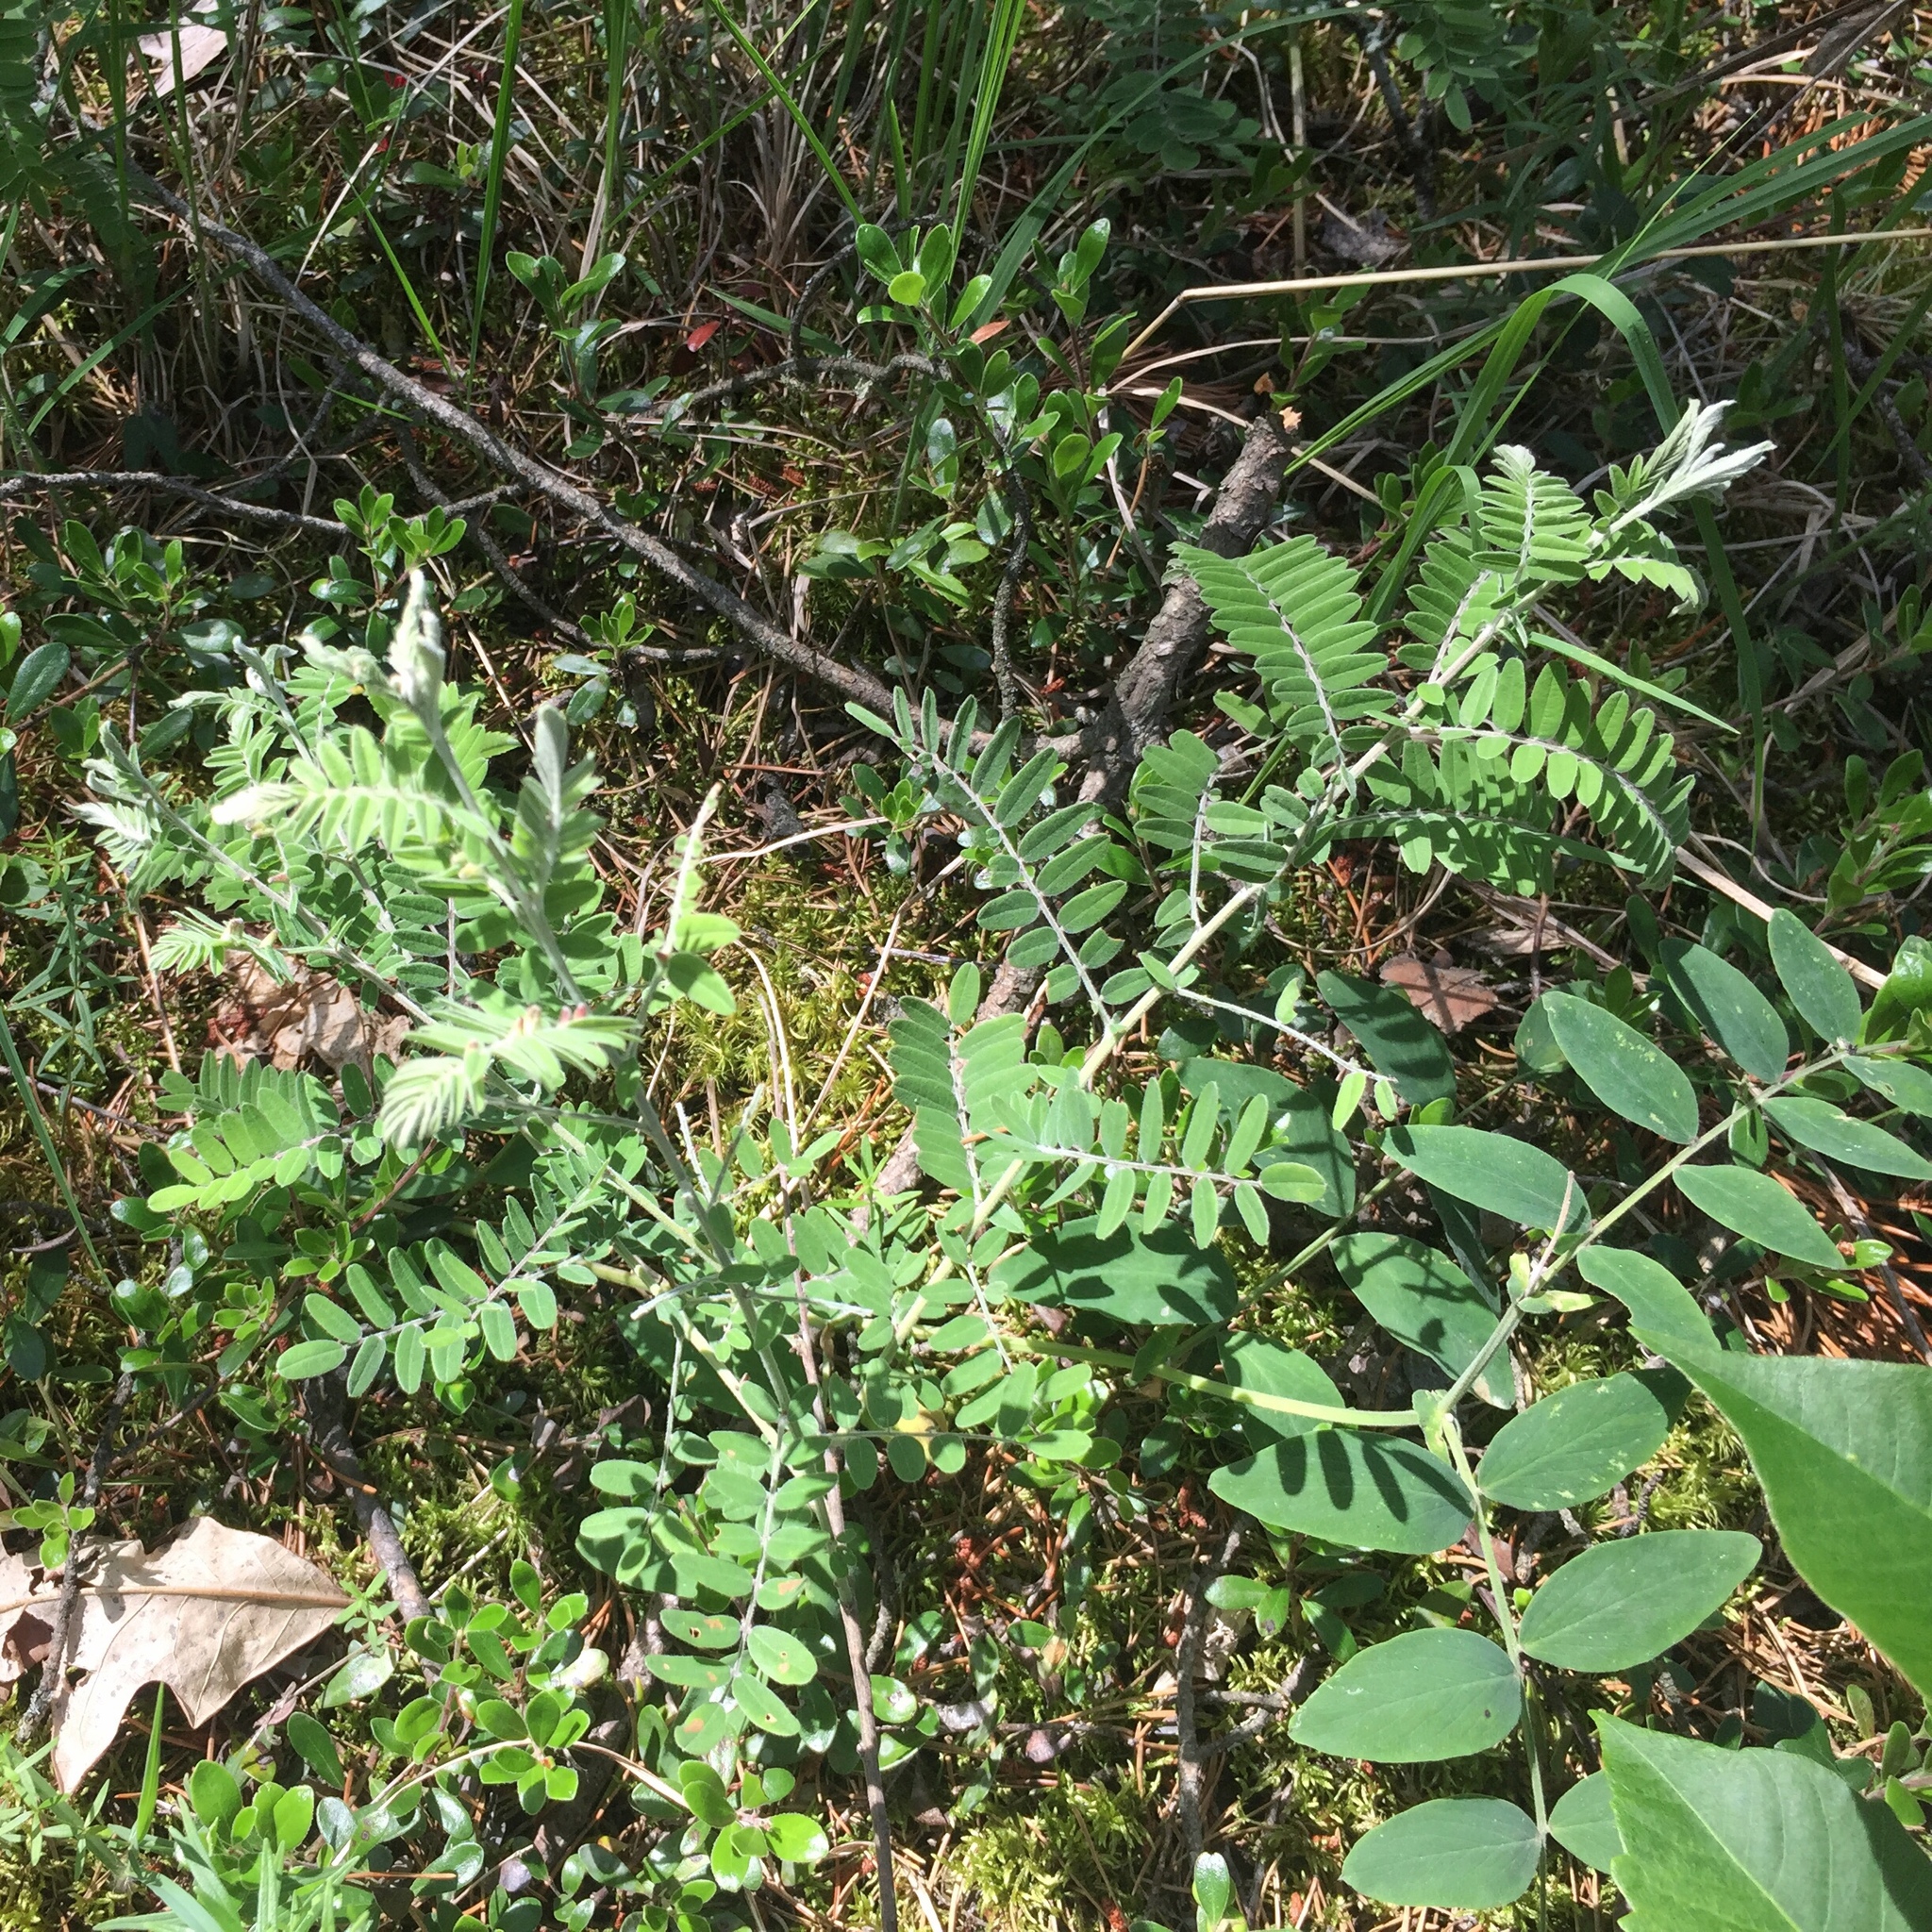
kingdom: Plantae
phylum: Tracheophyta
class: Magnoliopsida
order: Fabales
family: Fabaceae
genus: Amorpha
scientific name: Amorpha canescens
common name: Leadplant
